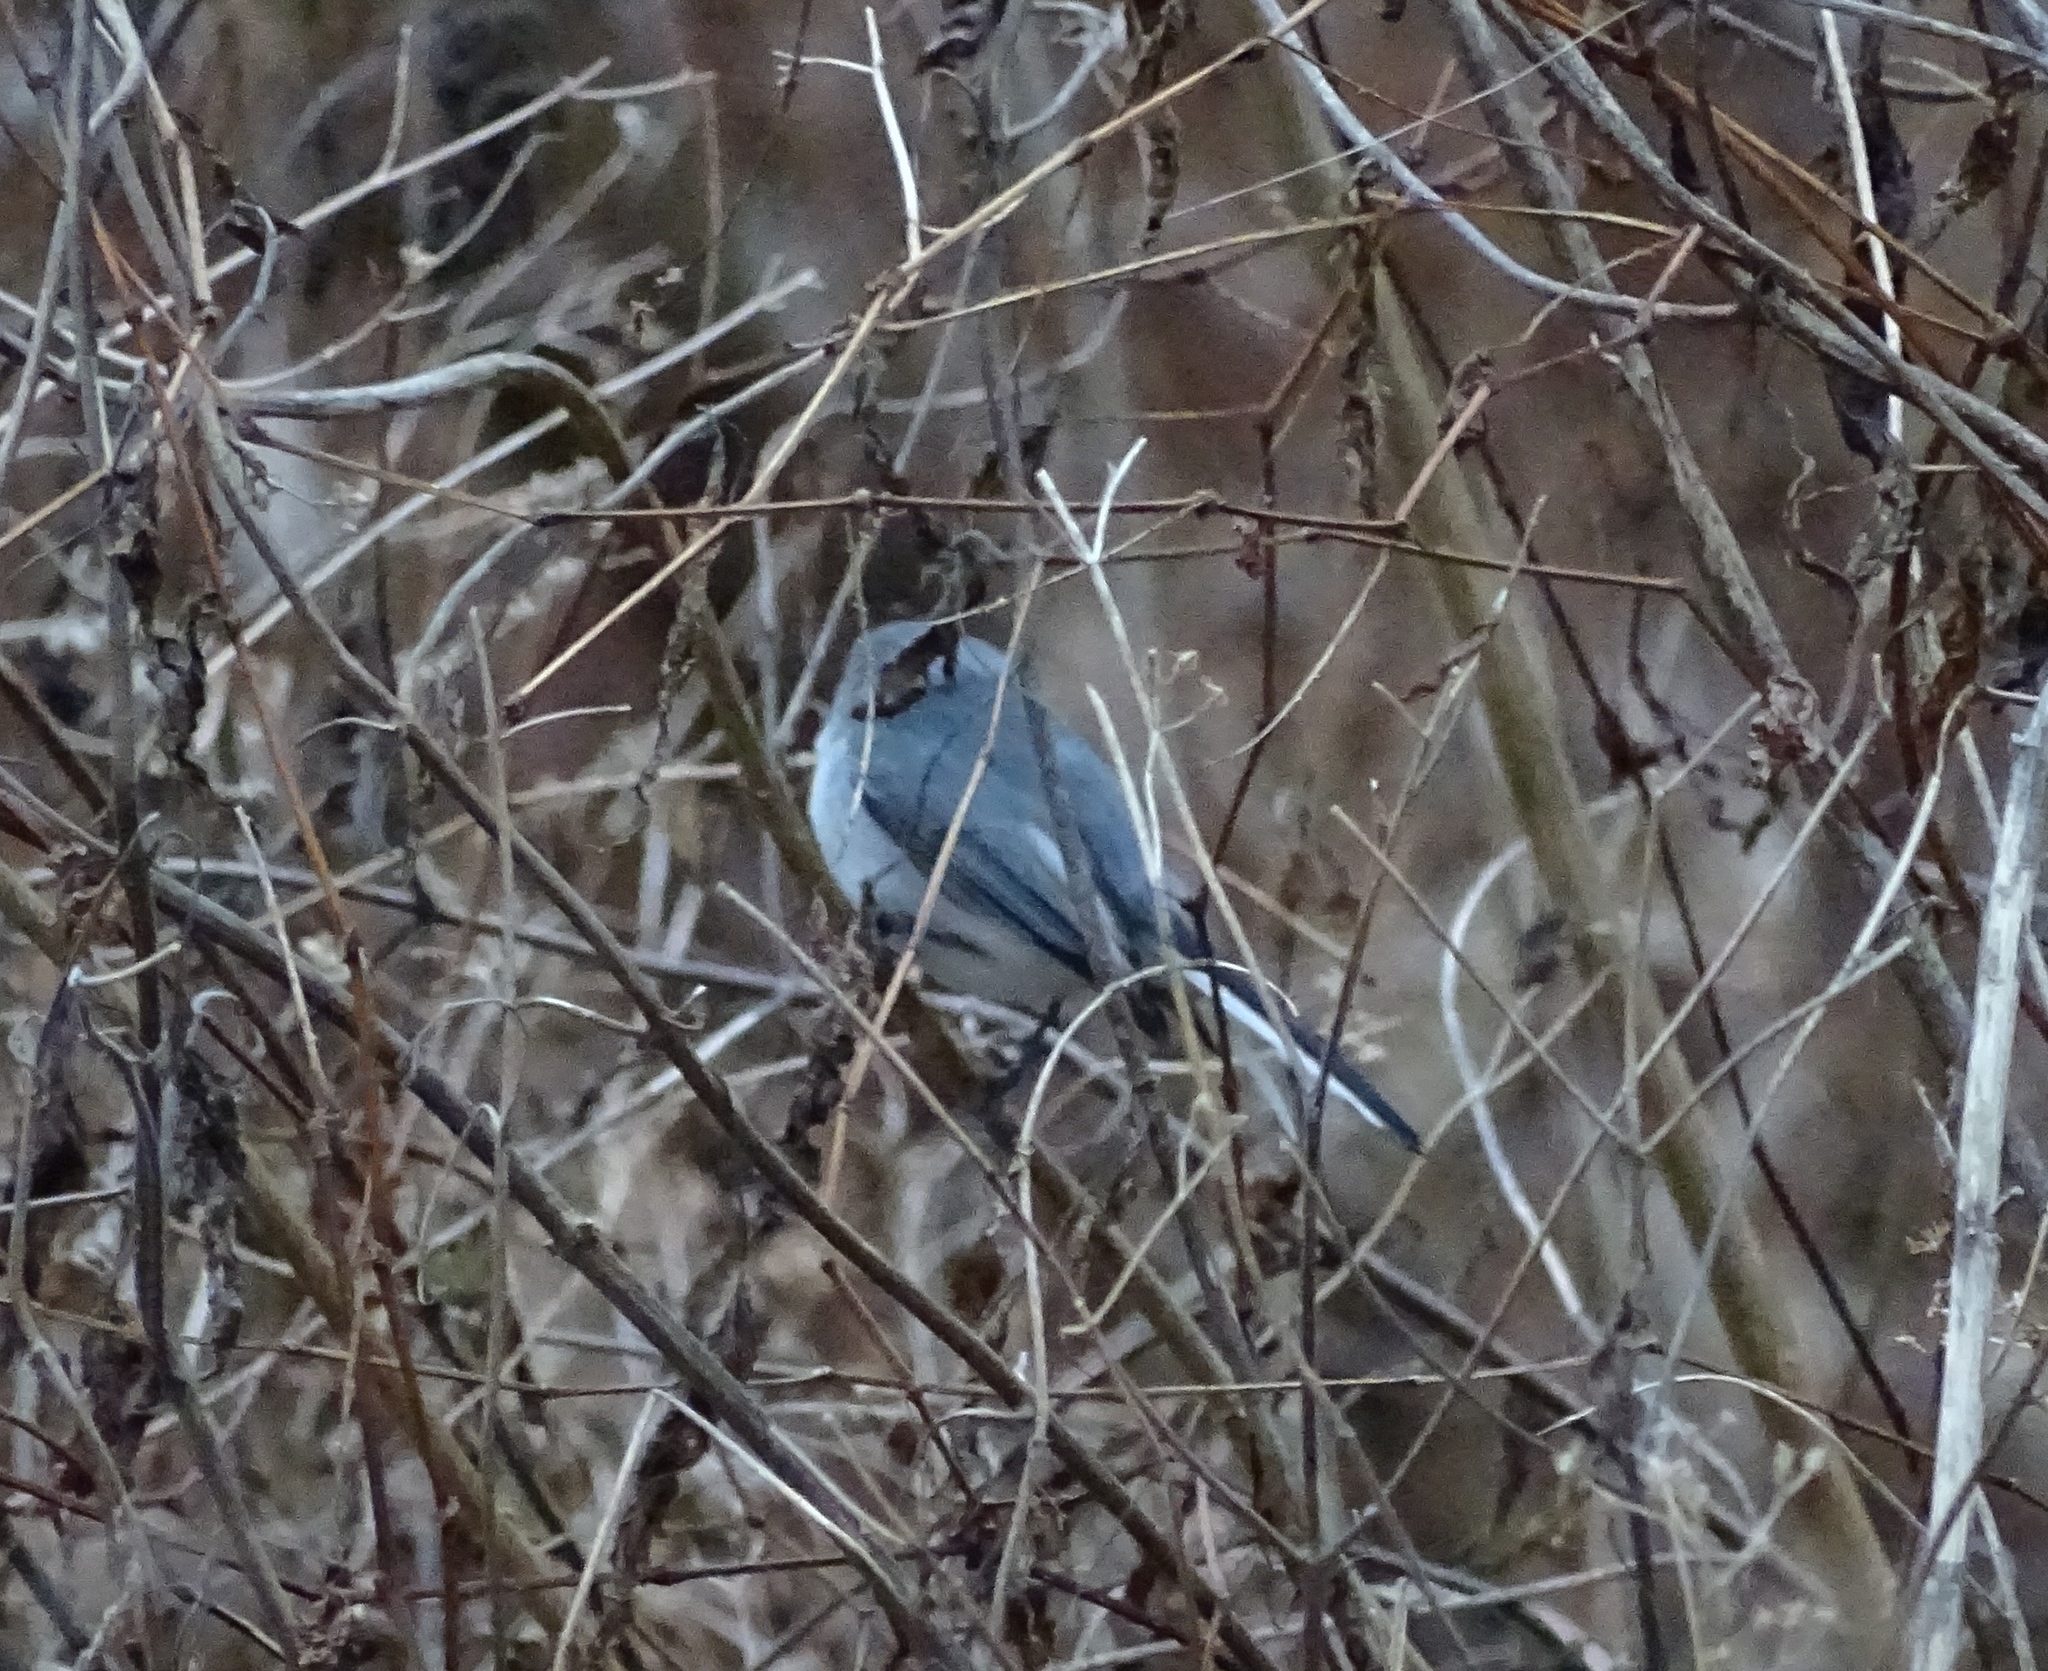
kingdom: Animalia
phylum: Chordata
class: Aves
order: Passeriformes
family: Polioptilidae
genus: Polioptila
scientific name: Polioptila caerulea
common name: Blue-gray gnatcatcher
